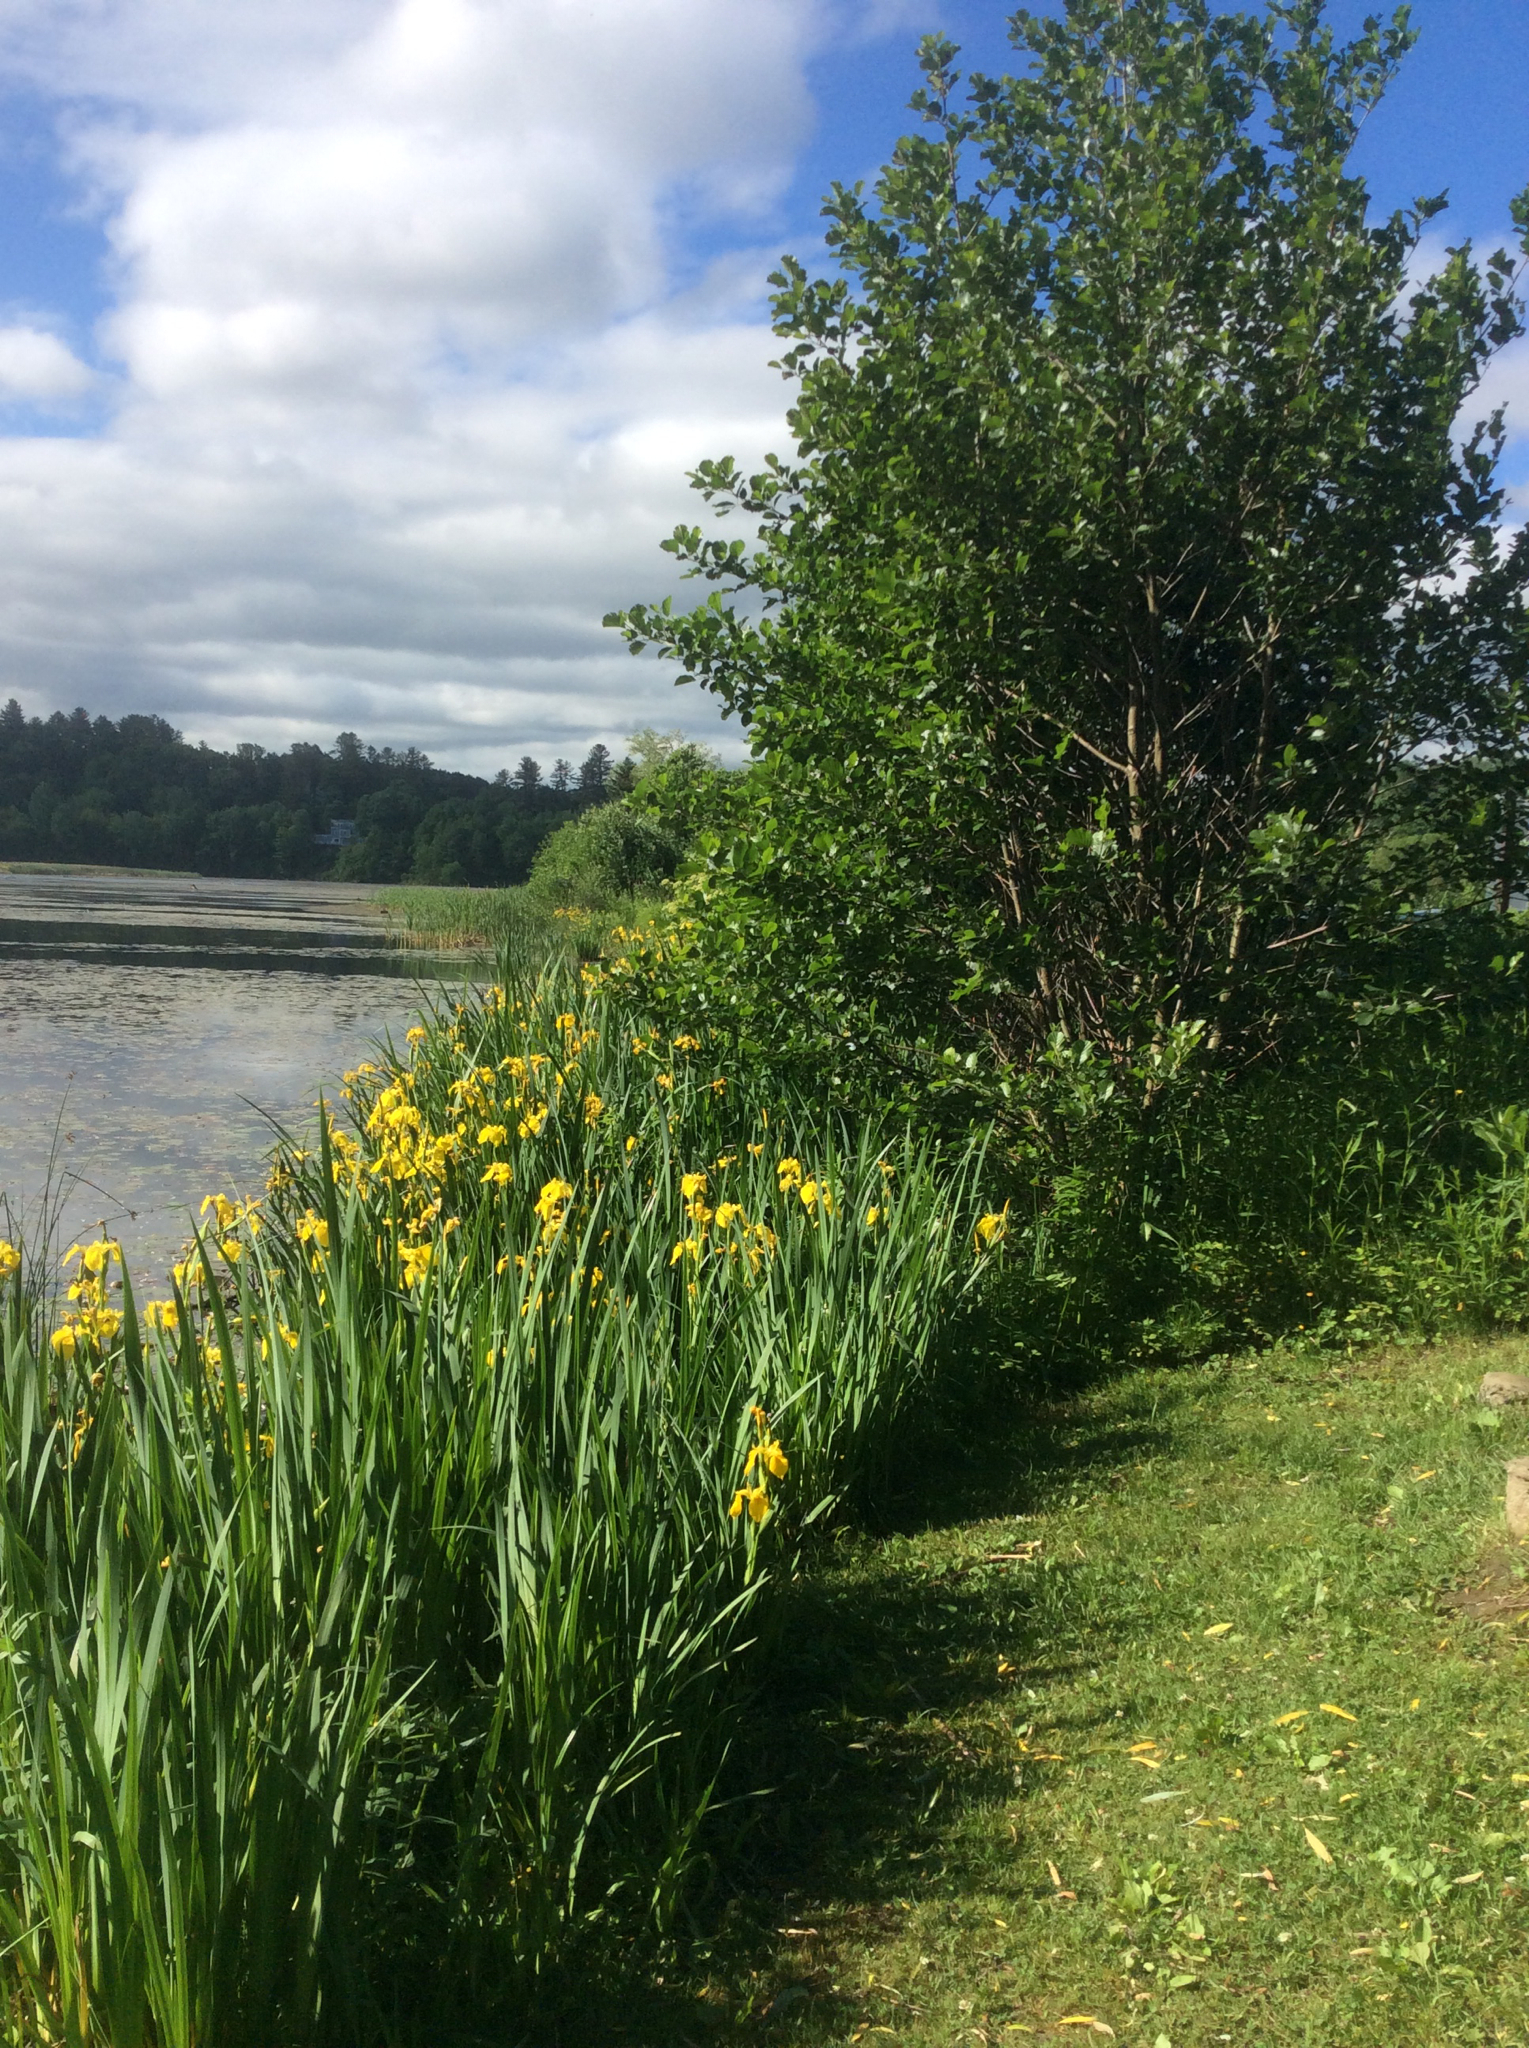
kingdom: Plantae
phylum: Tracheophyta
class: Magnoliopsida
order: Fagales
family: Betulaceae
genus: Alnus
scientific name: Alnus glutinosa
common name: Black alder
